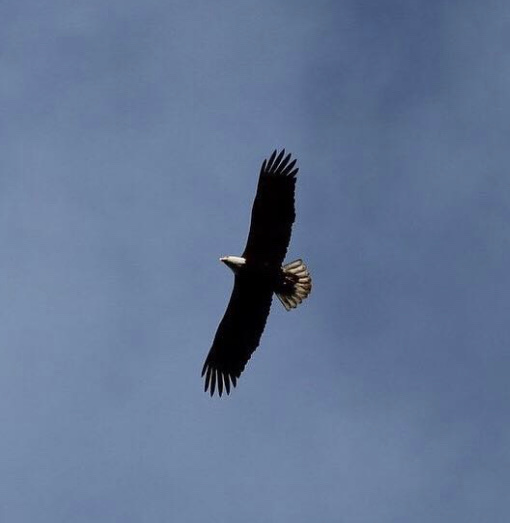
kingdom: Animalia
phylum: Chordata
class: Aves
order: Accipitriformes
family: Accipitridae
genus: Haliaeetus
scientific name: Haliaeetus leucocephalus
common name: Bald eagle
